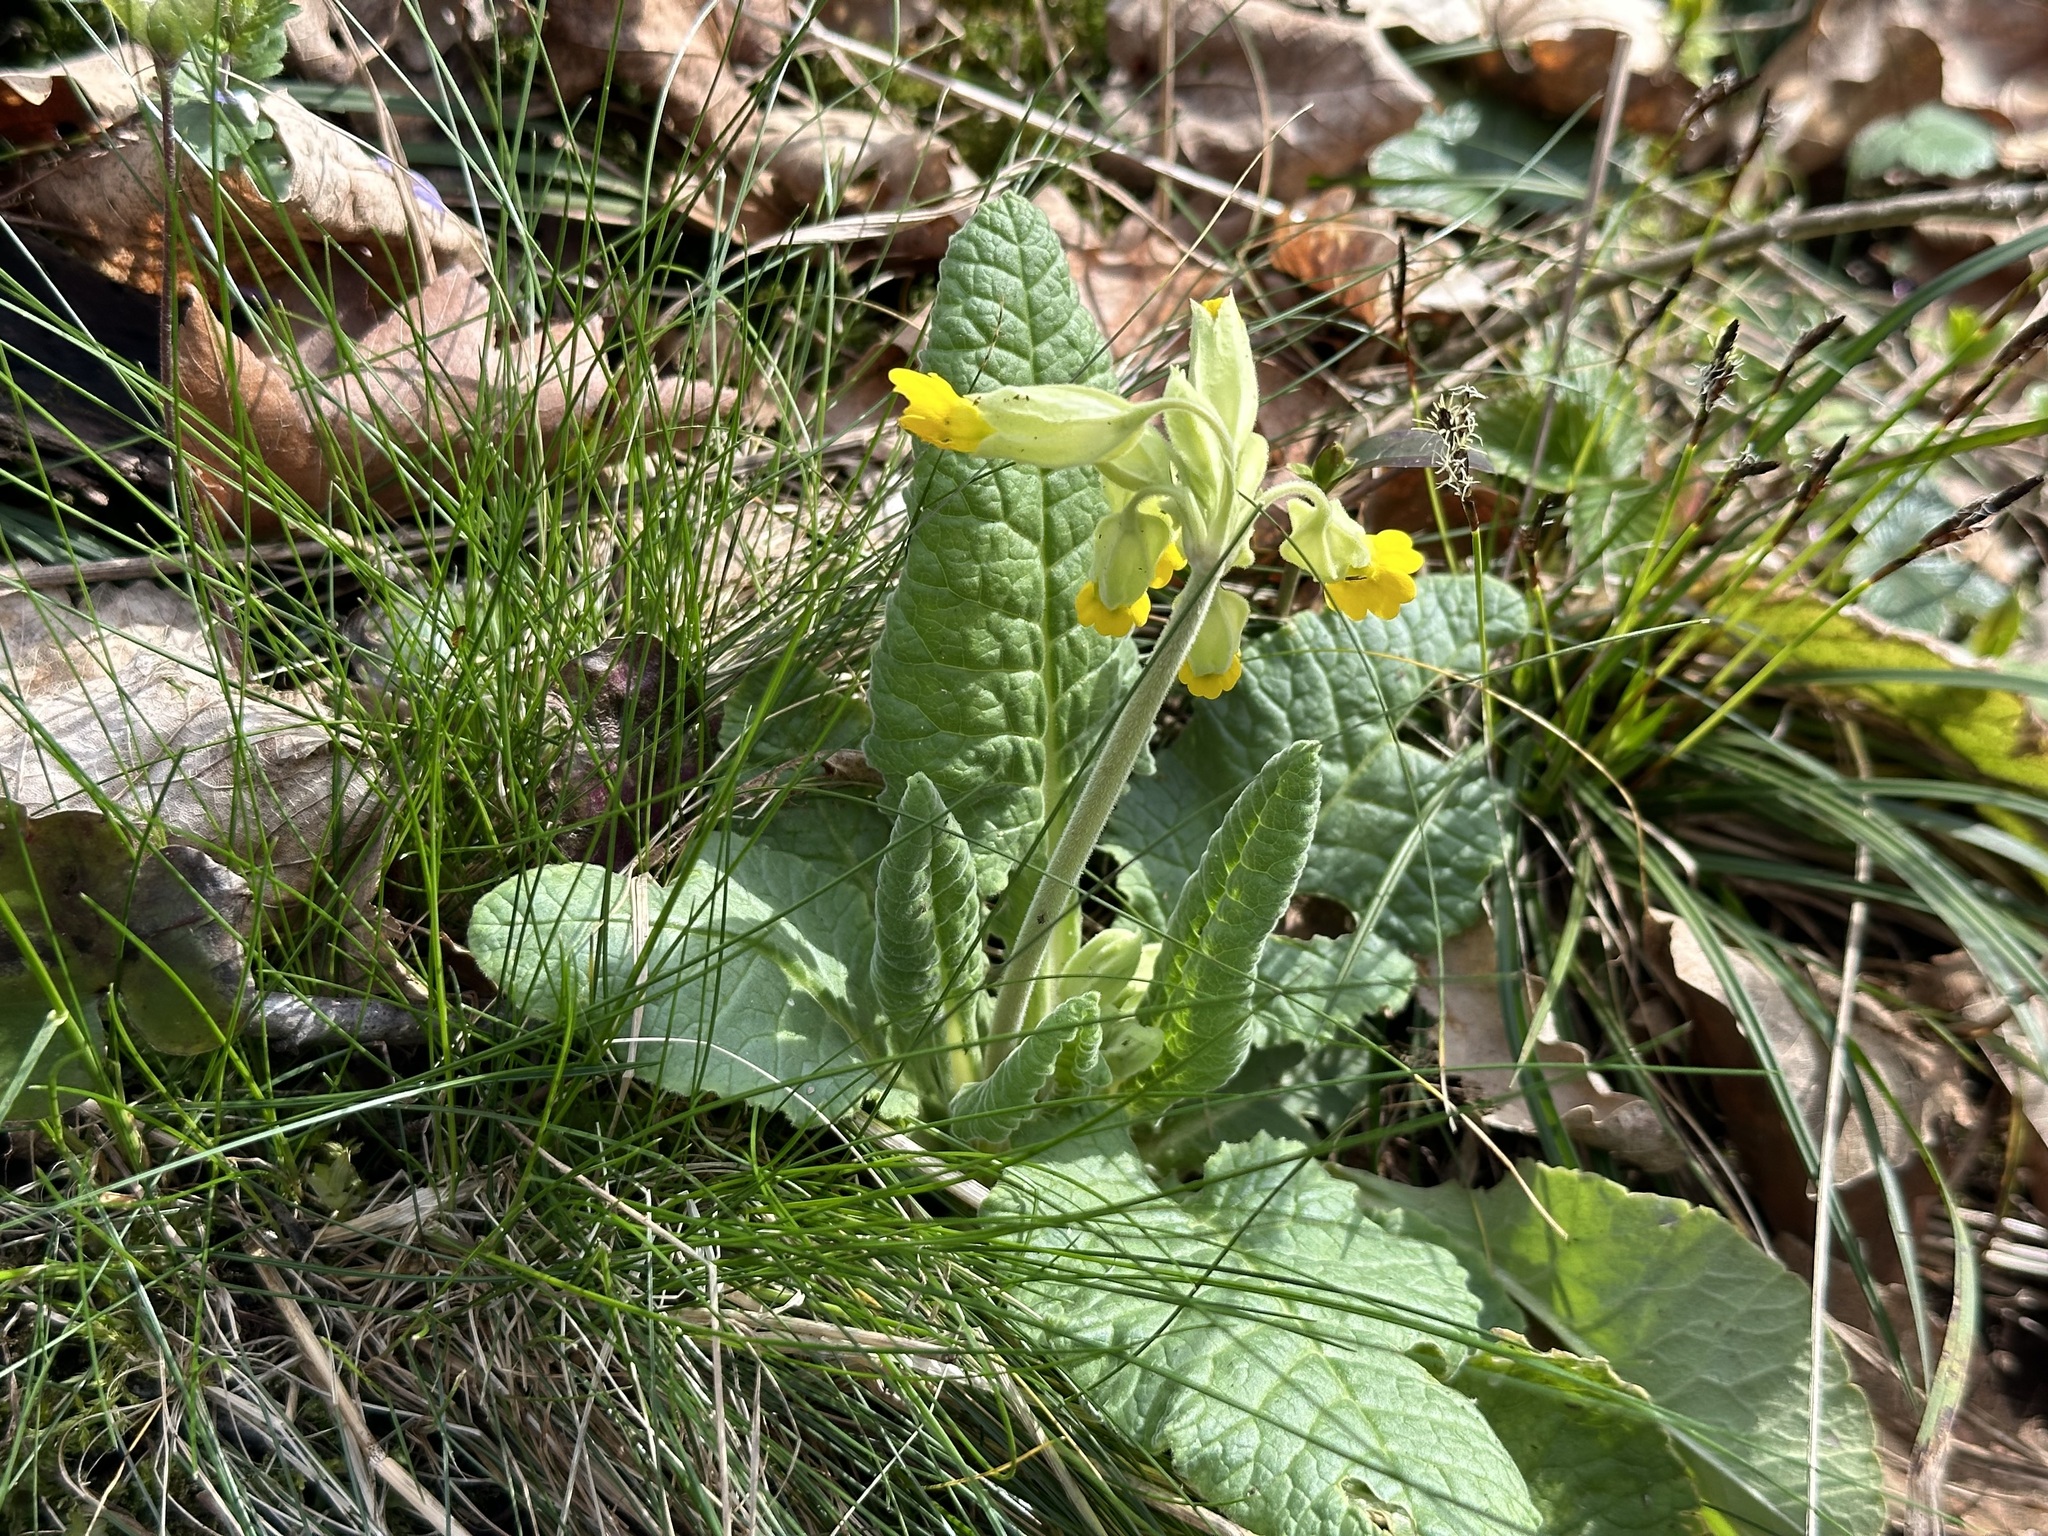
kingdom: Plantae
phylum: Tracheophyta
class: Magnoliopsida
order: Ericales
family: Primulaceae
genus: Primula
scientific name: Primula veris
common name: Cowslip
